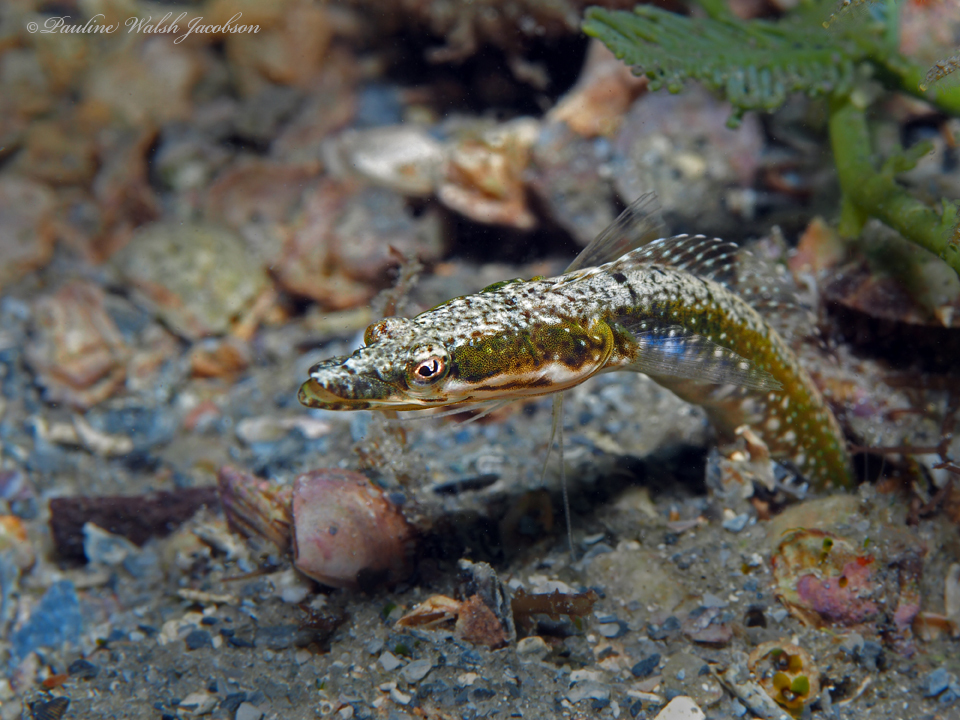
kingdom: Animalia
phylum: Chordata
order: Perciformes
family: Chaenopsidae
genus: Chaenopsis
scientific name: Chaenopsis ocellata
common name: Bluethroat pikeblenny
